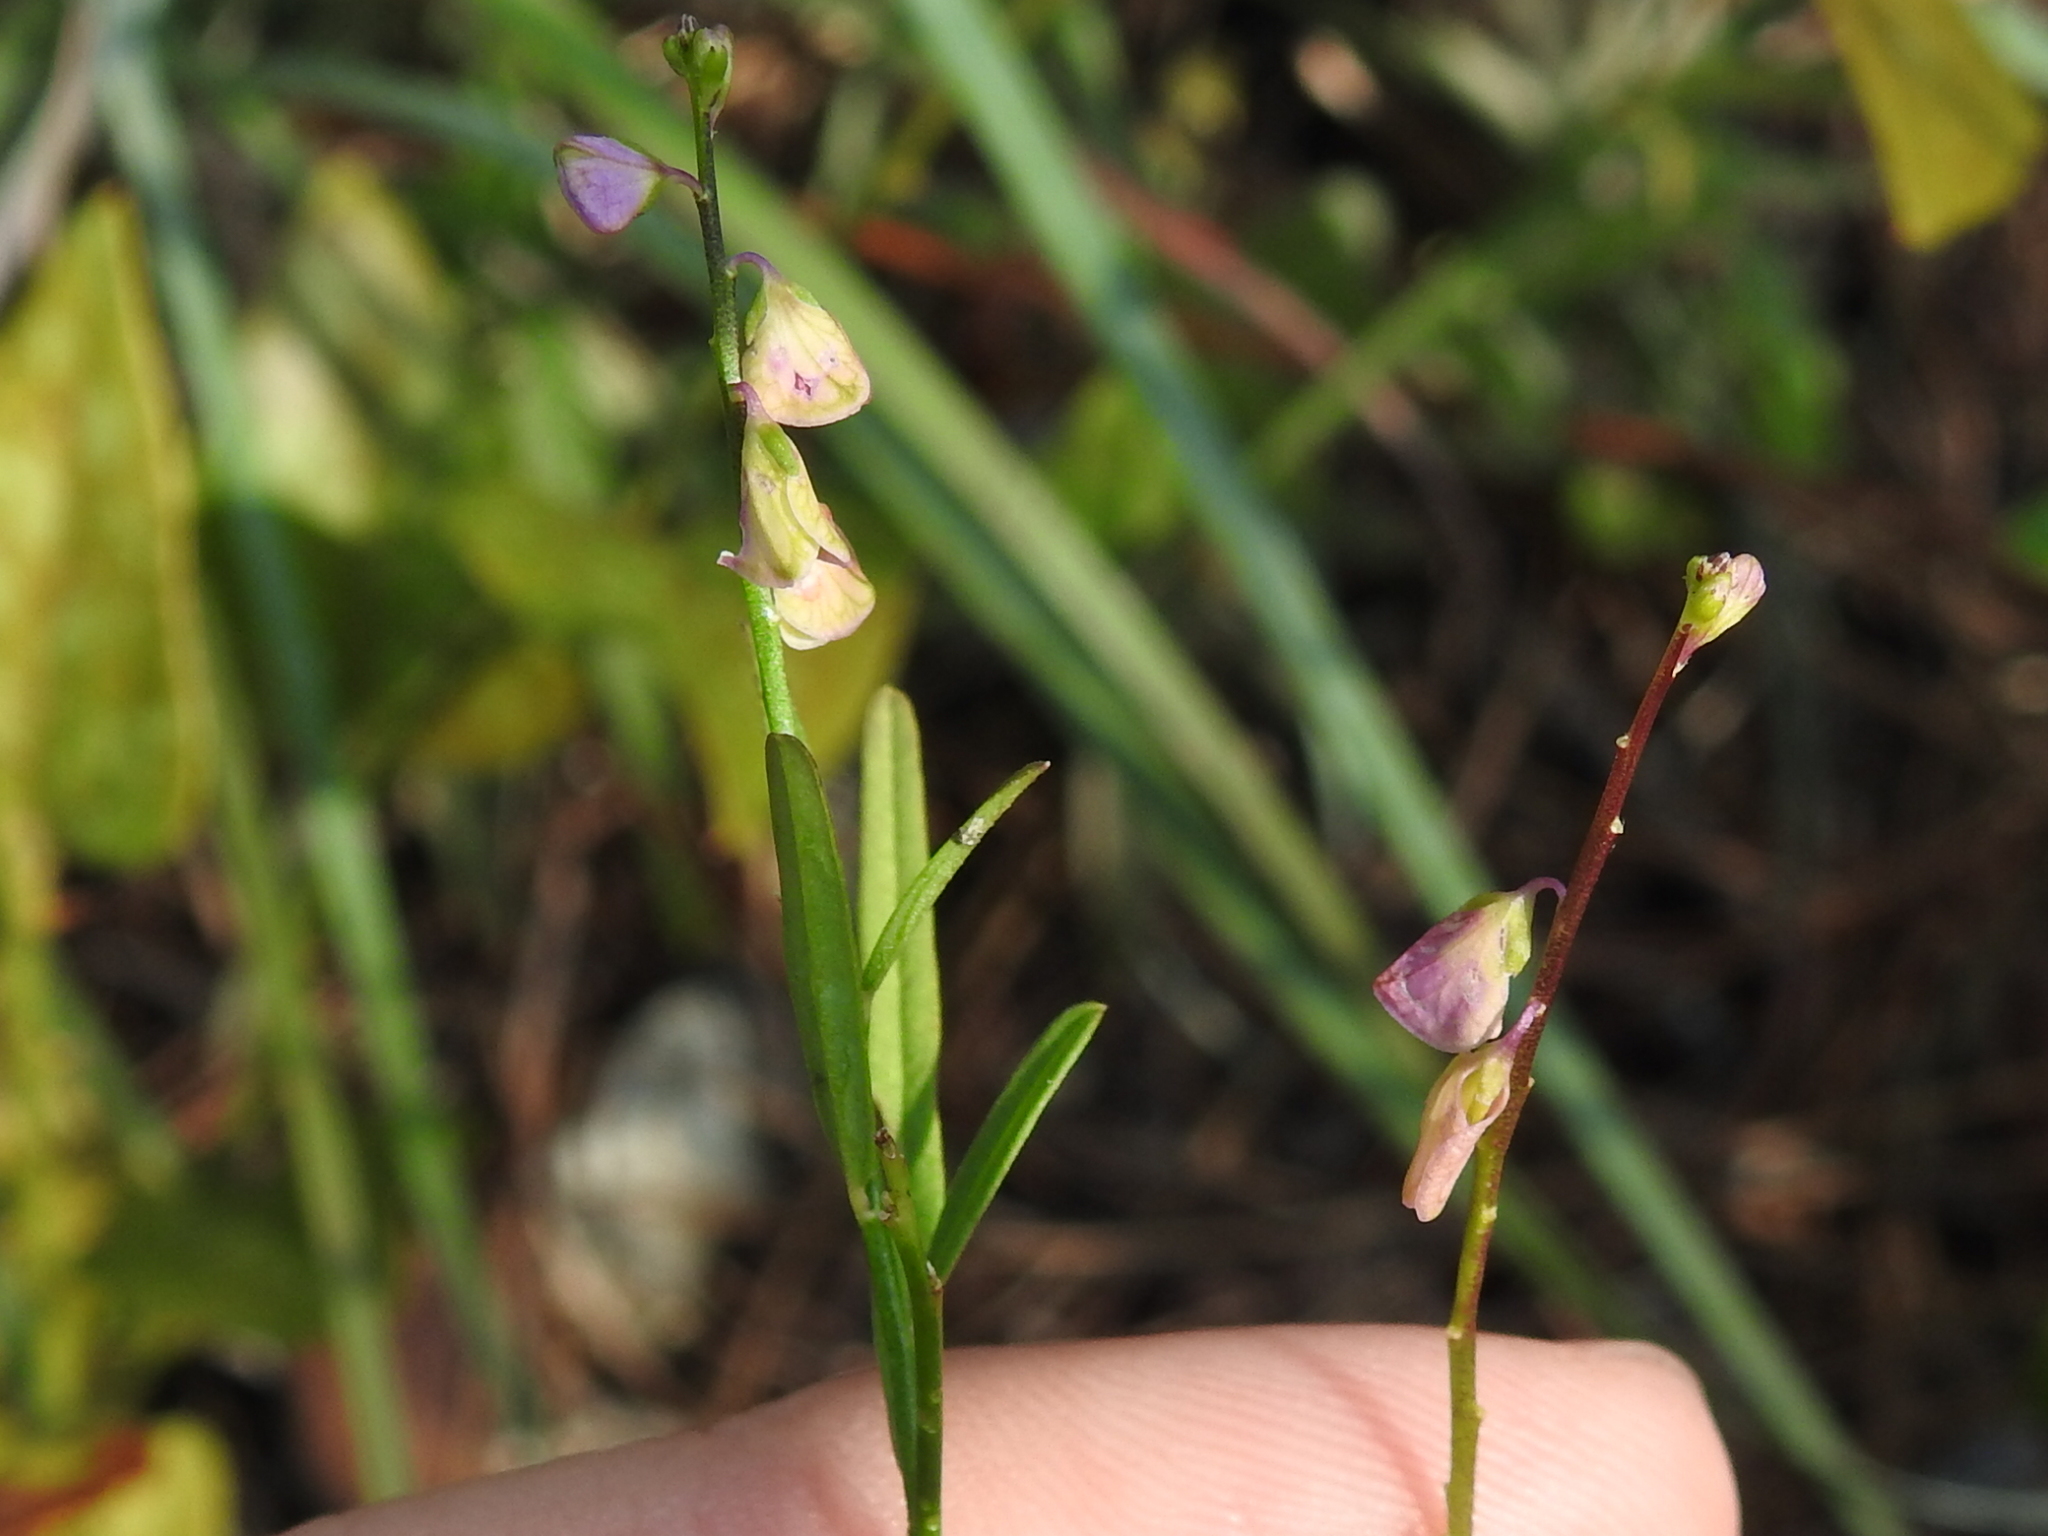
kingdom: Plantae
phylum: Tracheophyta
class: Magnoliopsida
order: Fabales
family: Polygalaceae
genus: Asemeia
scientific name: Asemeia grandiflora
